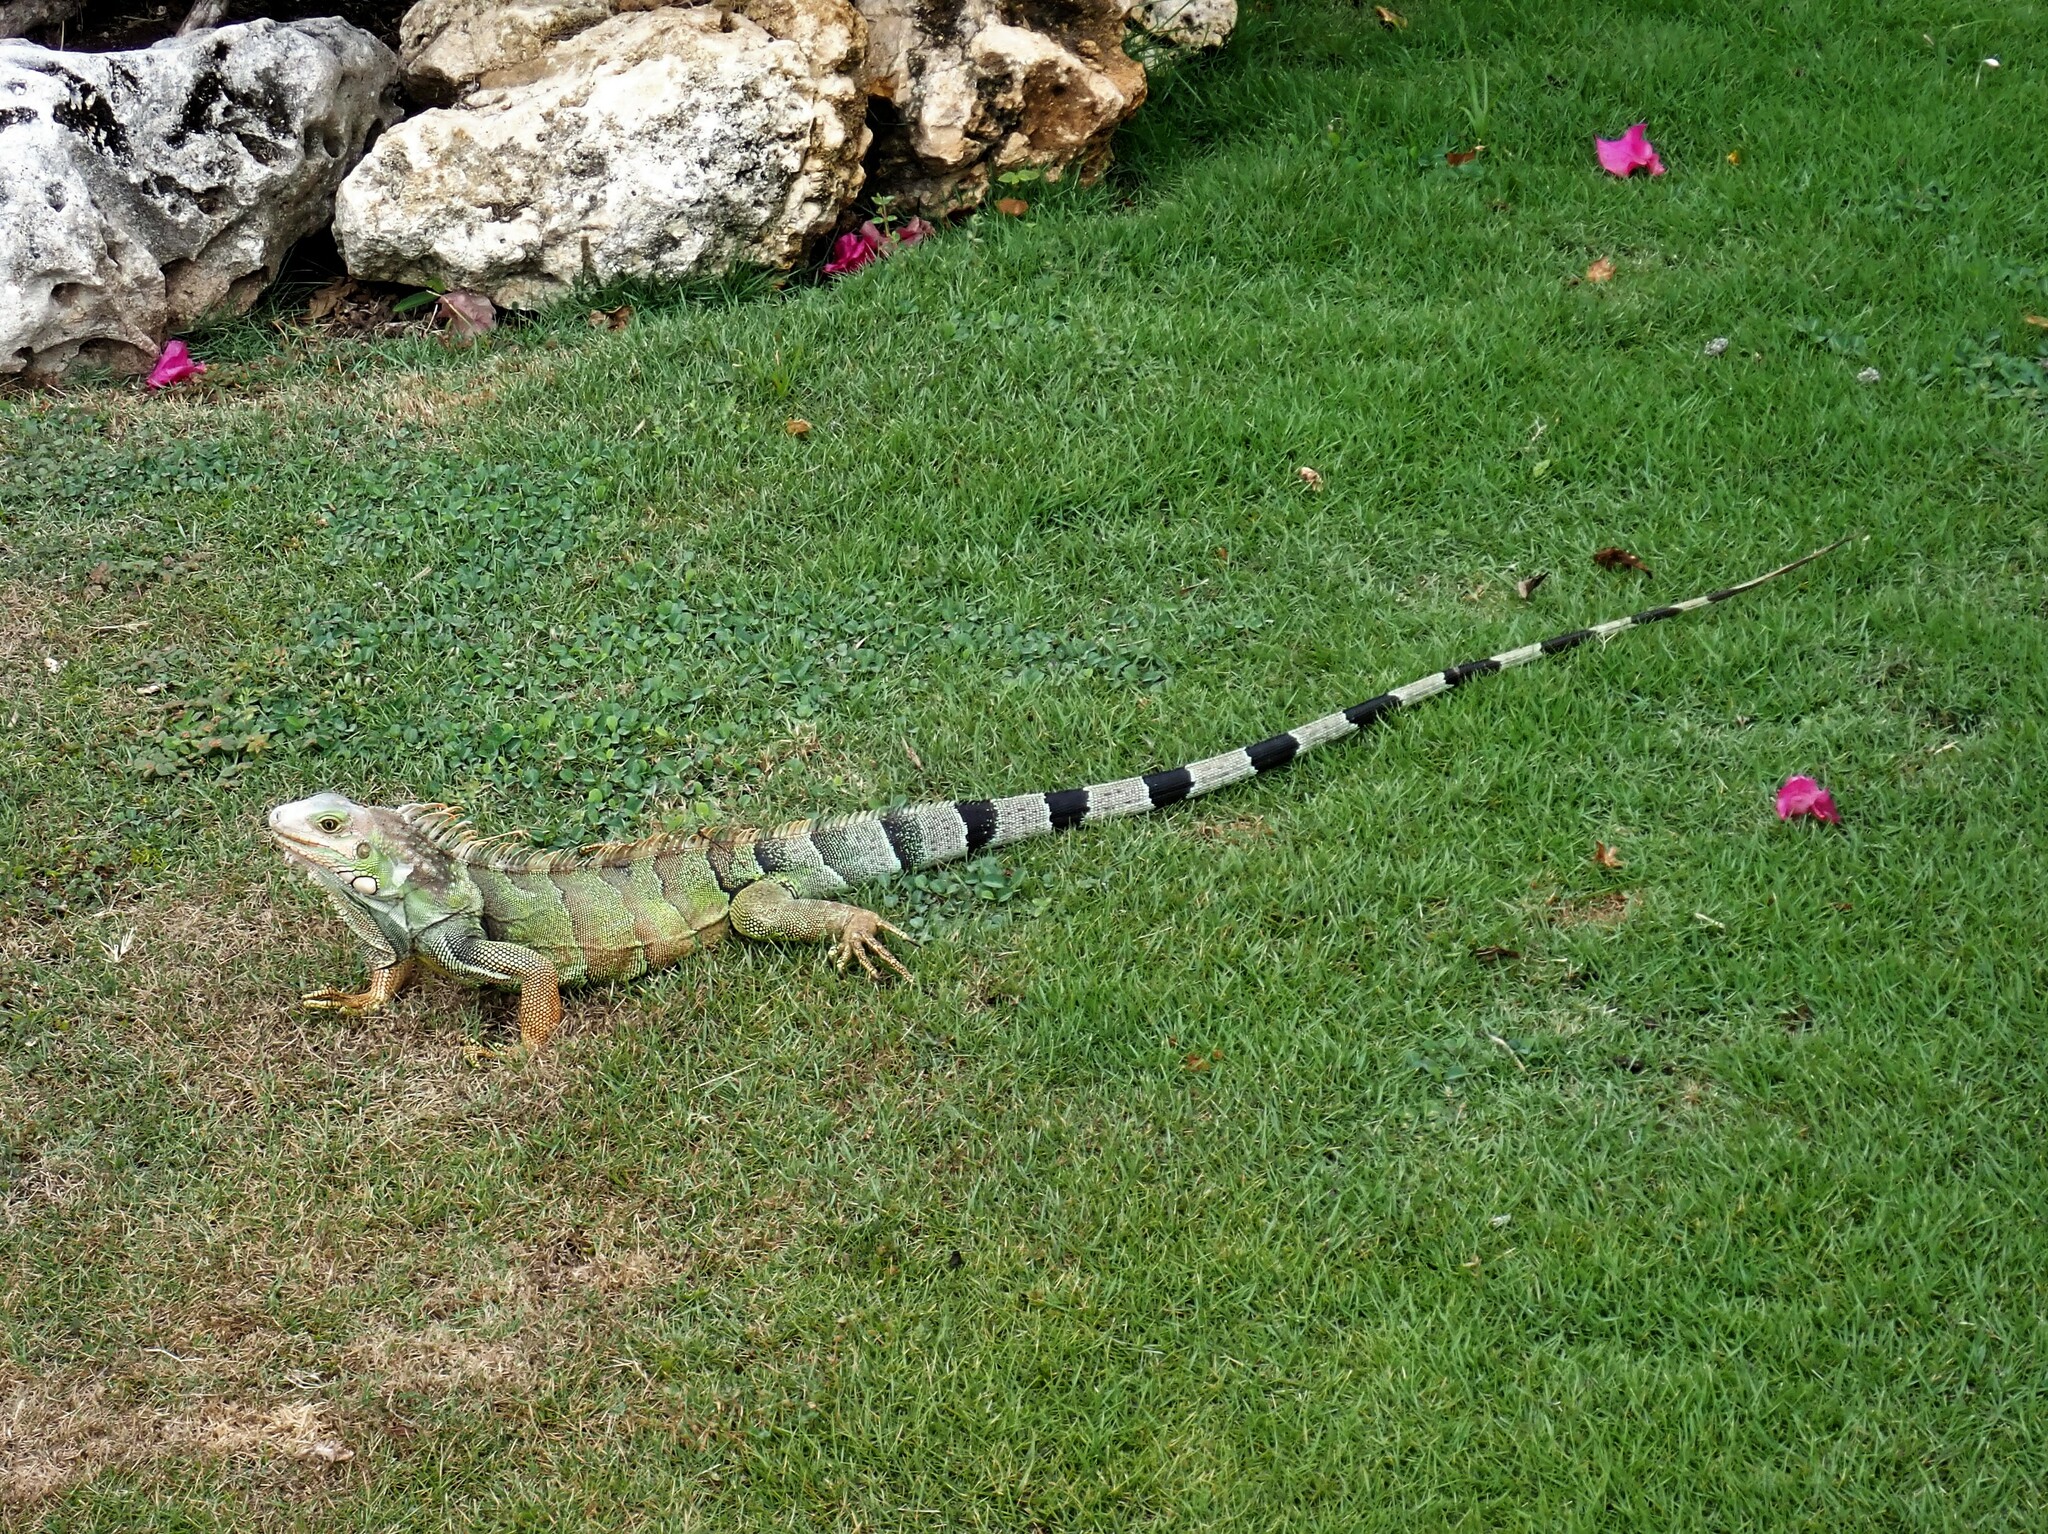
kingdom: Animalia
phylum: Chordata
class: Squamata
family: Iguanidae
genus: Iguana
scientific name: Iguana iguana
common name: Green iguana
